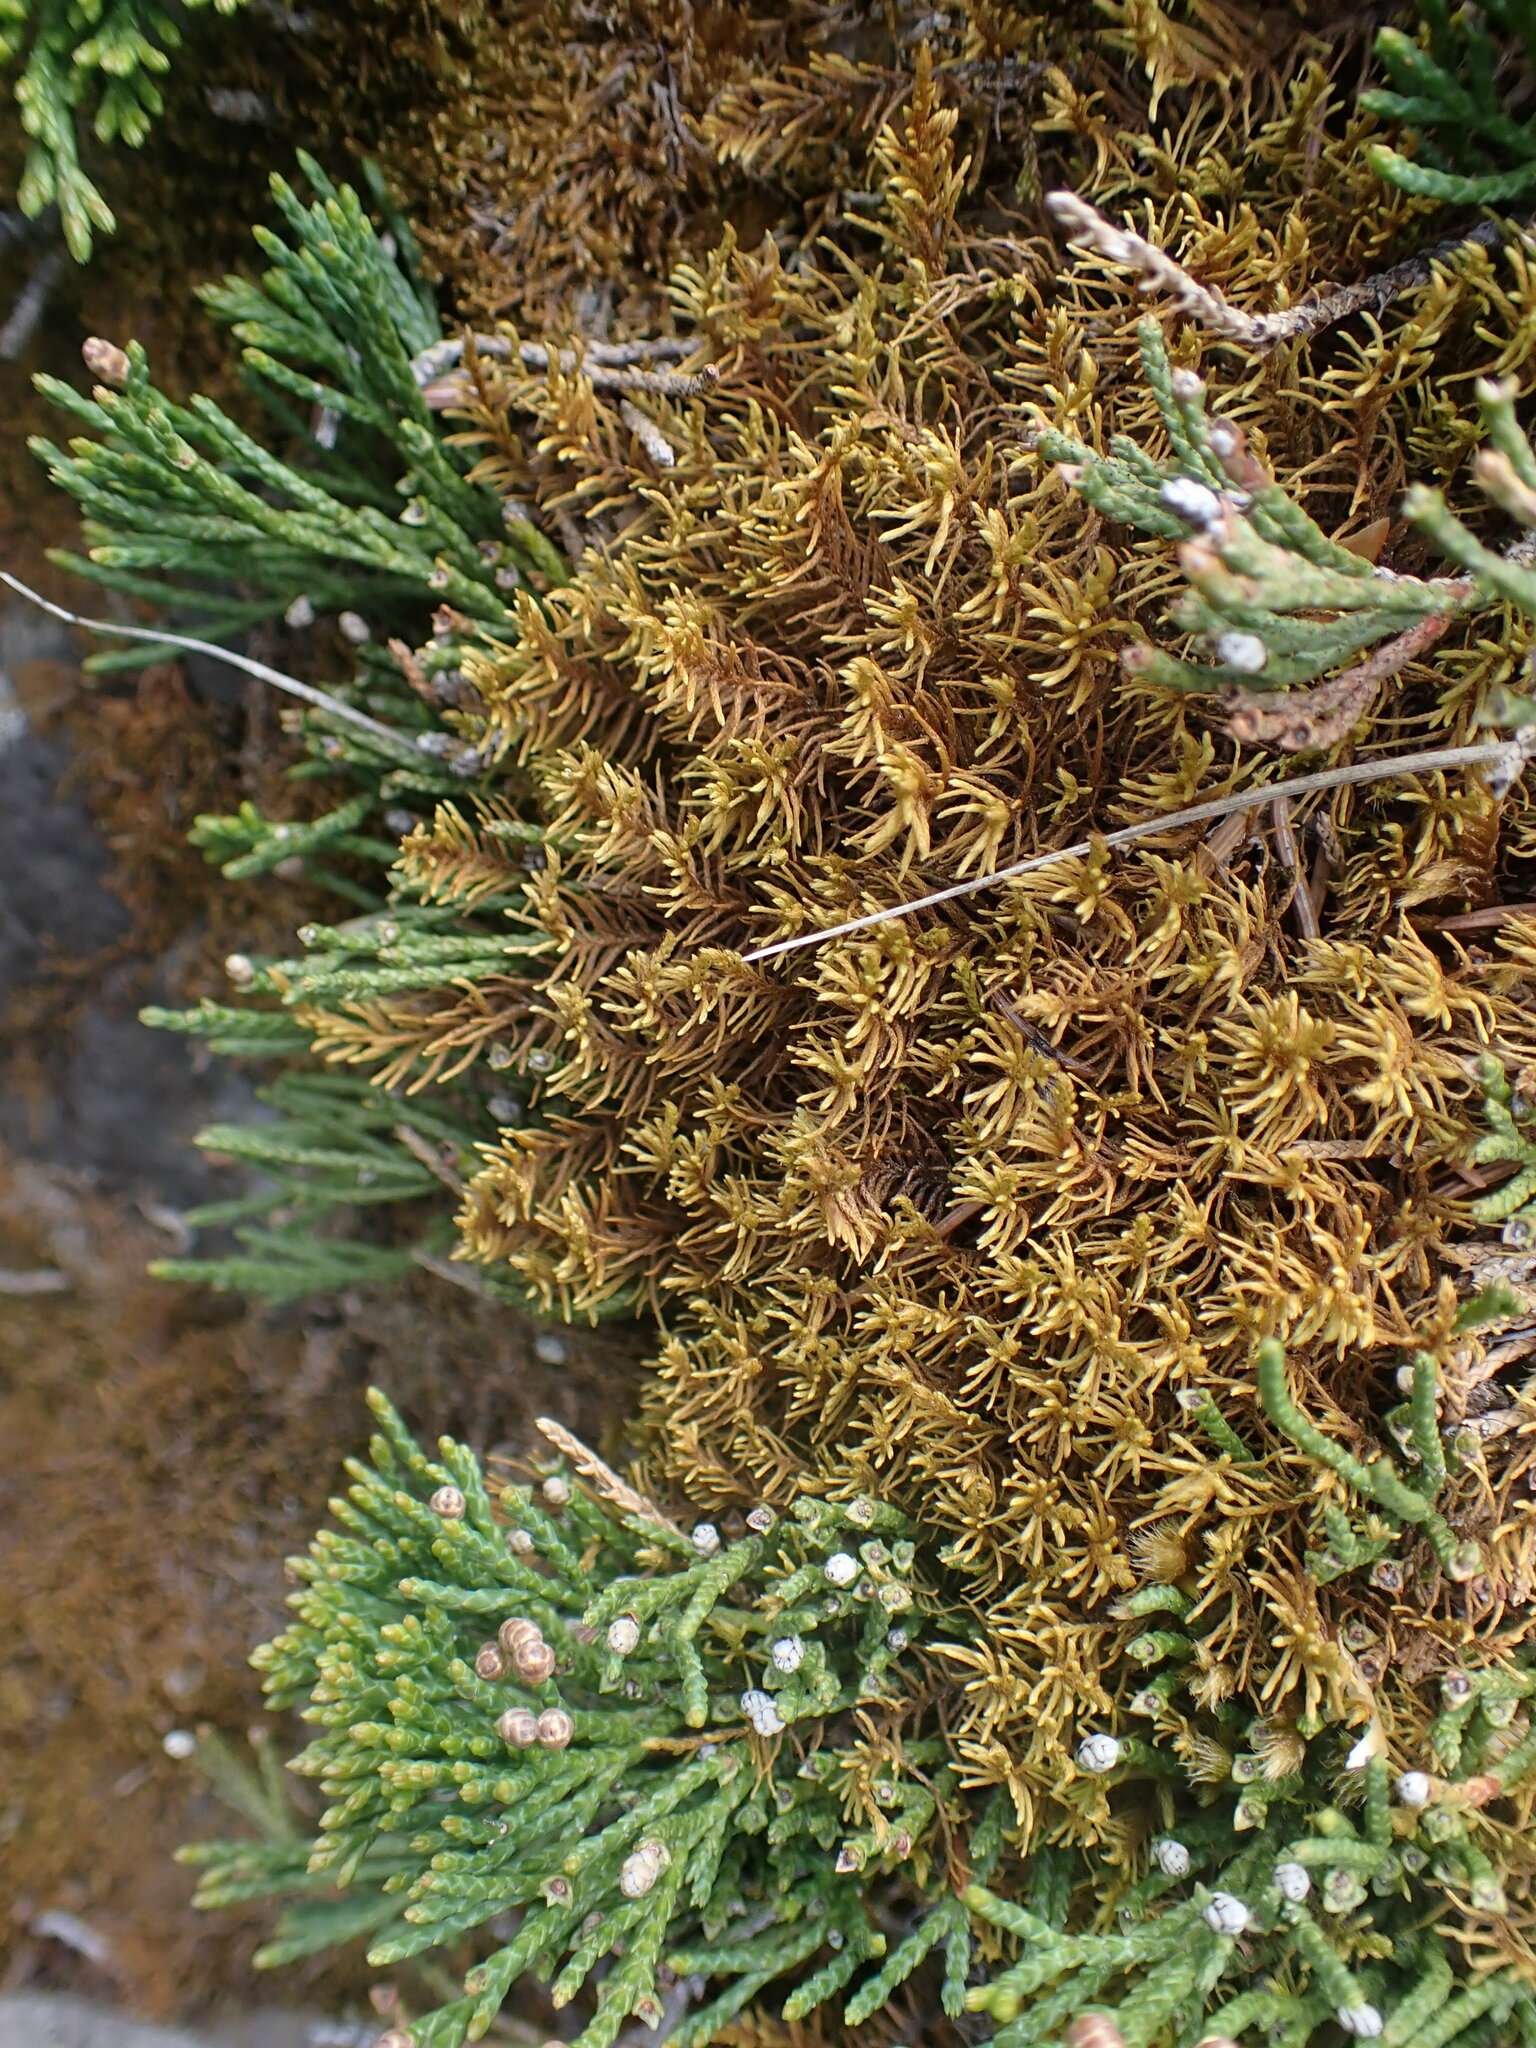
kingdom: Plantae
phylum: Bryophyta
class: Bryopsida
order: Hypnales
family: Thuidiaceae
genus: Abietinella
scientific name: Abietinella abietina
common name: Wiry fern moss
